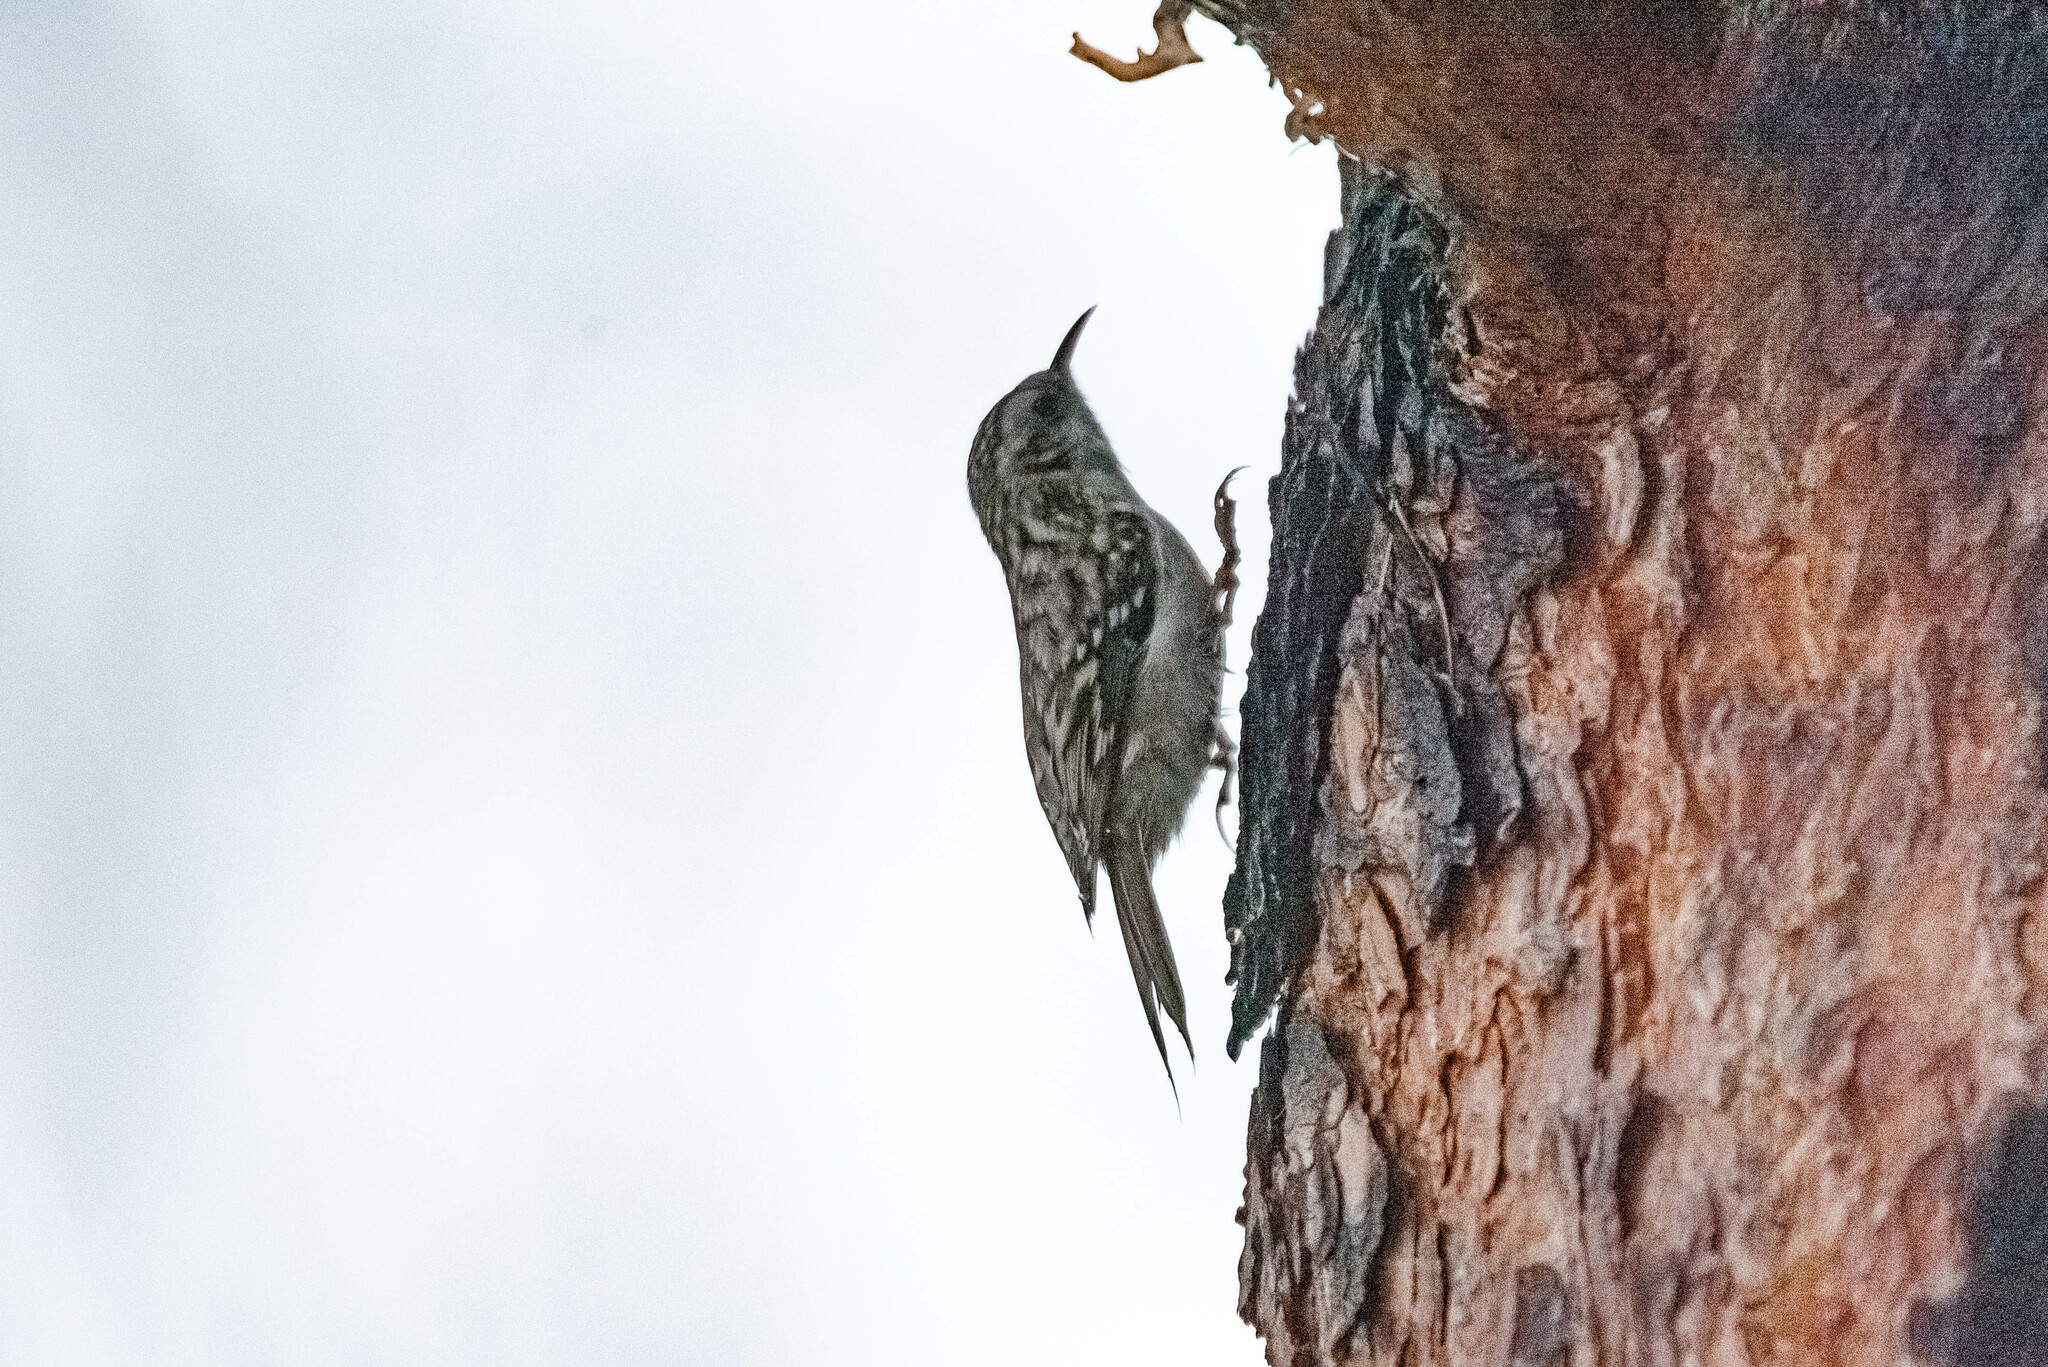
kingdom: Animalia
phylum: Chordata
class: Aves
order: Passeriformes
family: Certhiidae
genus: Certhia
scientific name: Certhia familiaris
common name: Eurasian treecreeper
